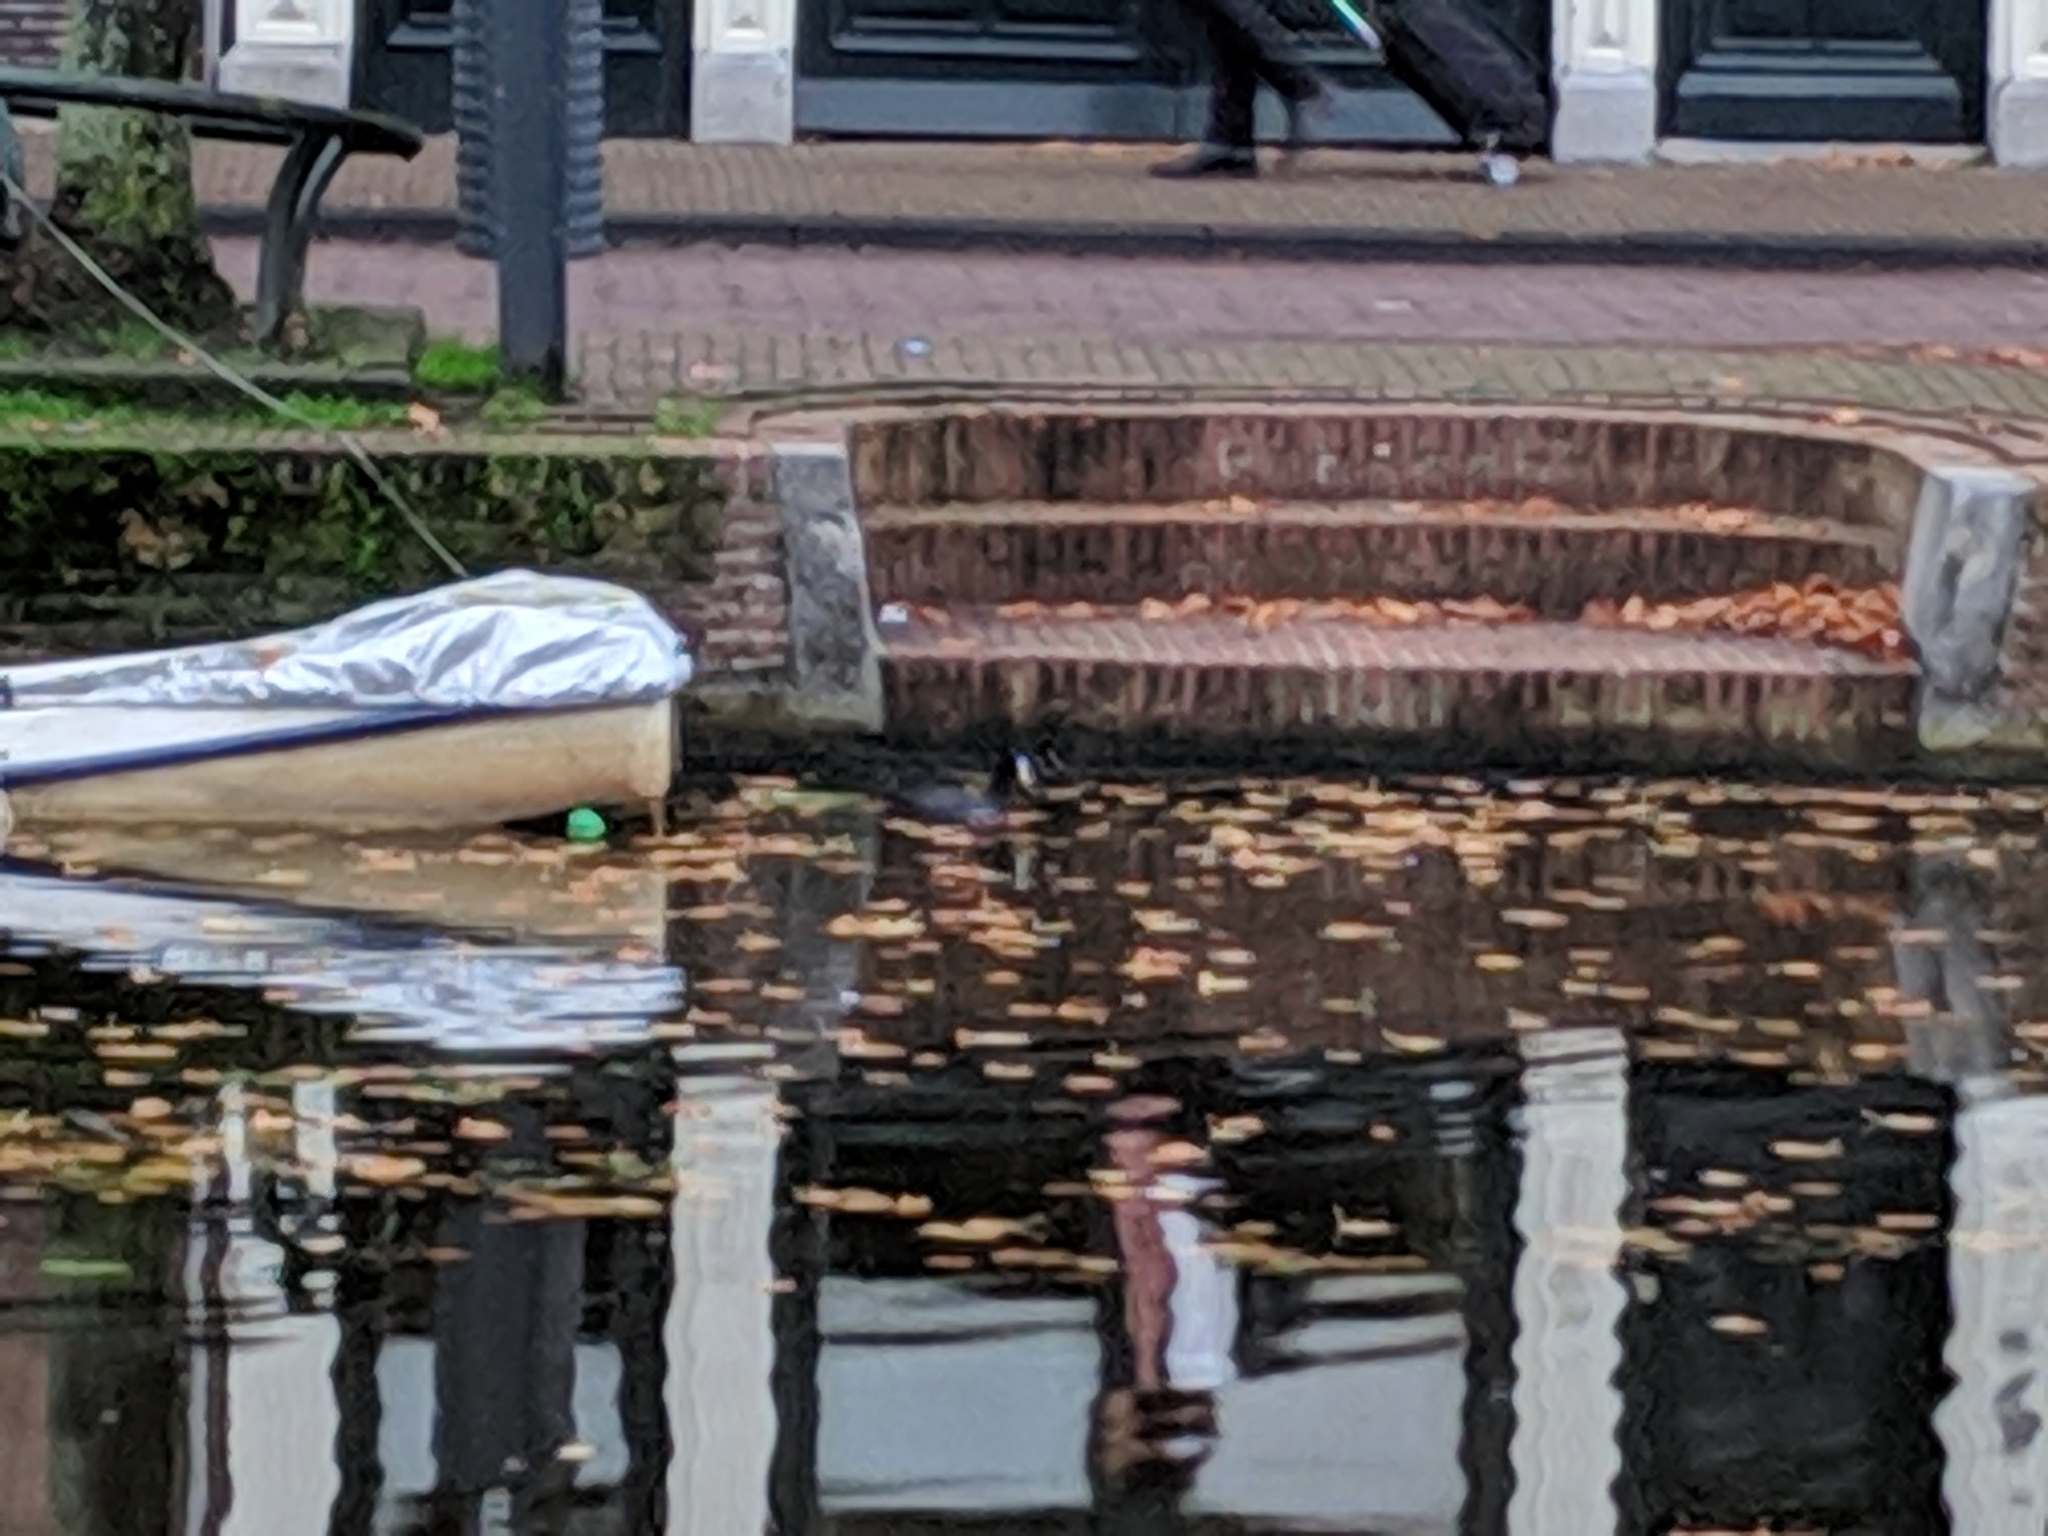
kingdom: Animalia
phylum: Chordata
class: Aves
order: Gruiformes
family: Rallidae
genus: Fulica
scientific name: Fulica atra
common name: Eurasian coot
